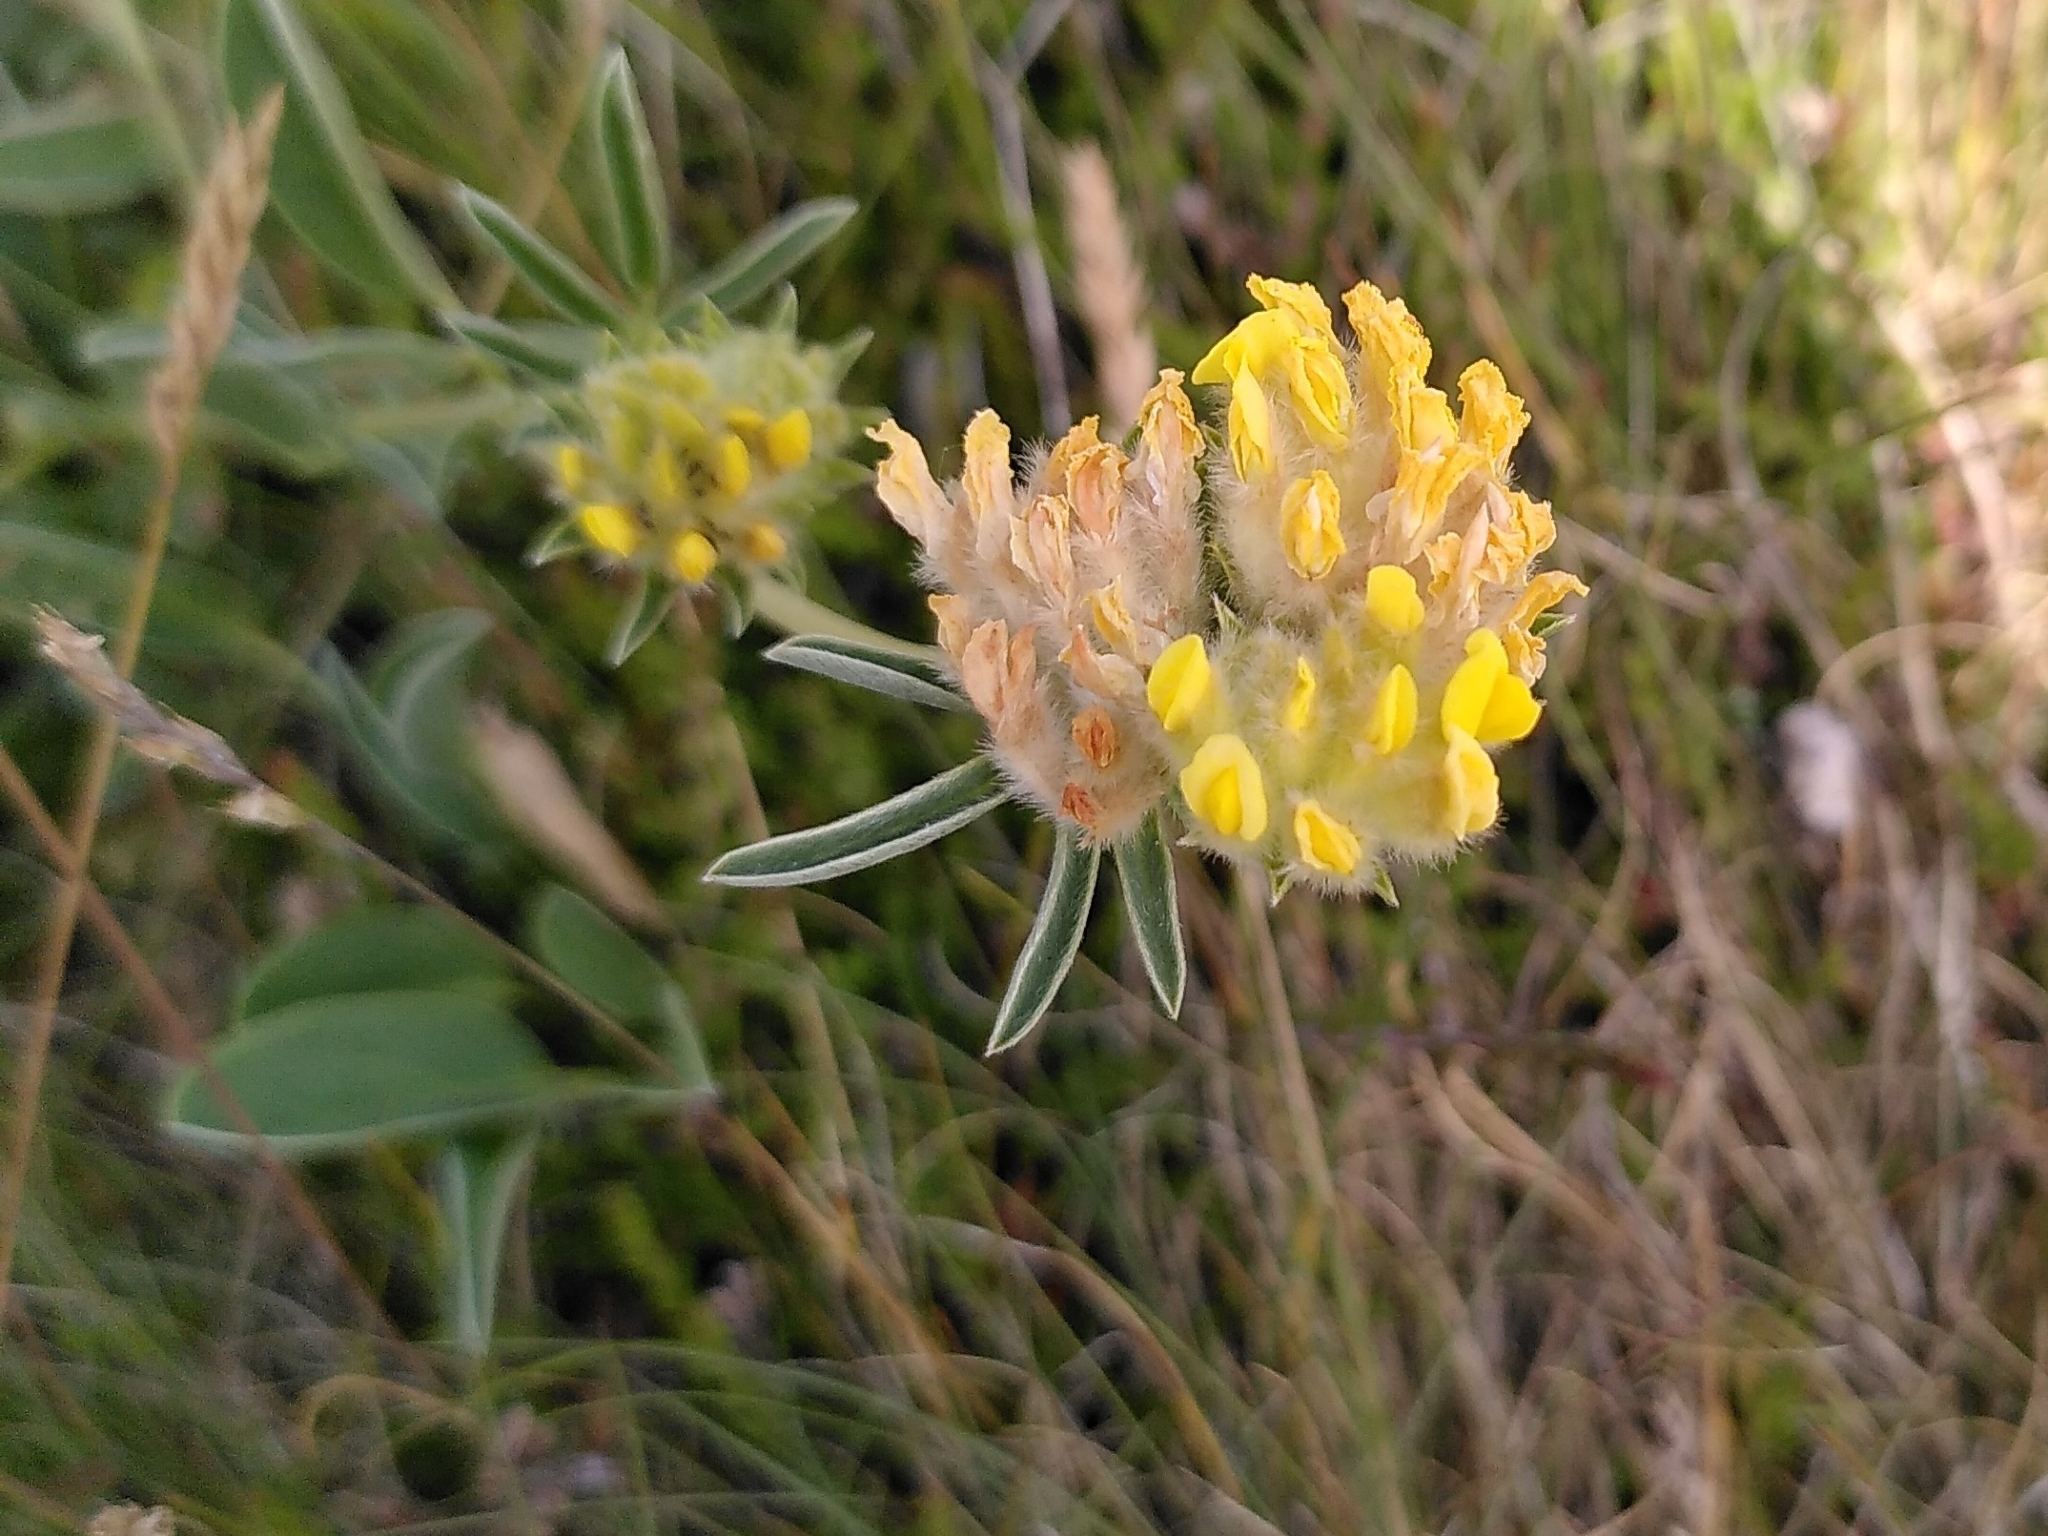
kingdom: Plantae
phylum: Tracheophyta
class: Magnoliopsida
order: Fabales
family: Fabaceae
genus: Anthyllis
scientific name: Anthyllis vulneraria
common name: Kidney vetch
